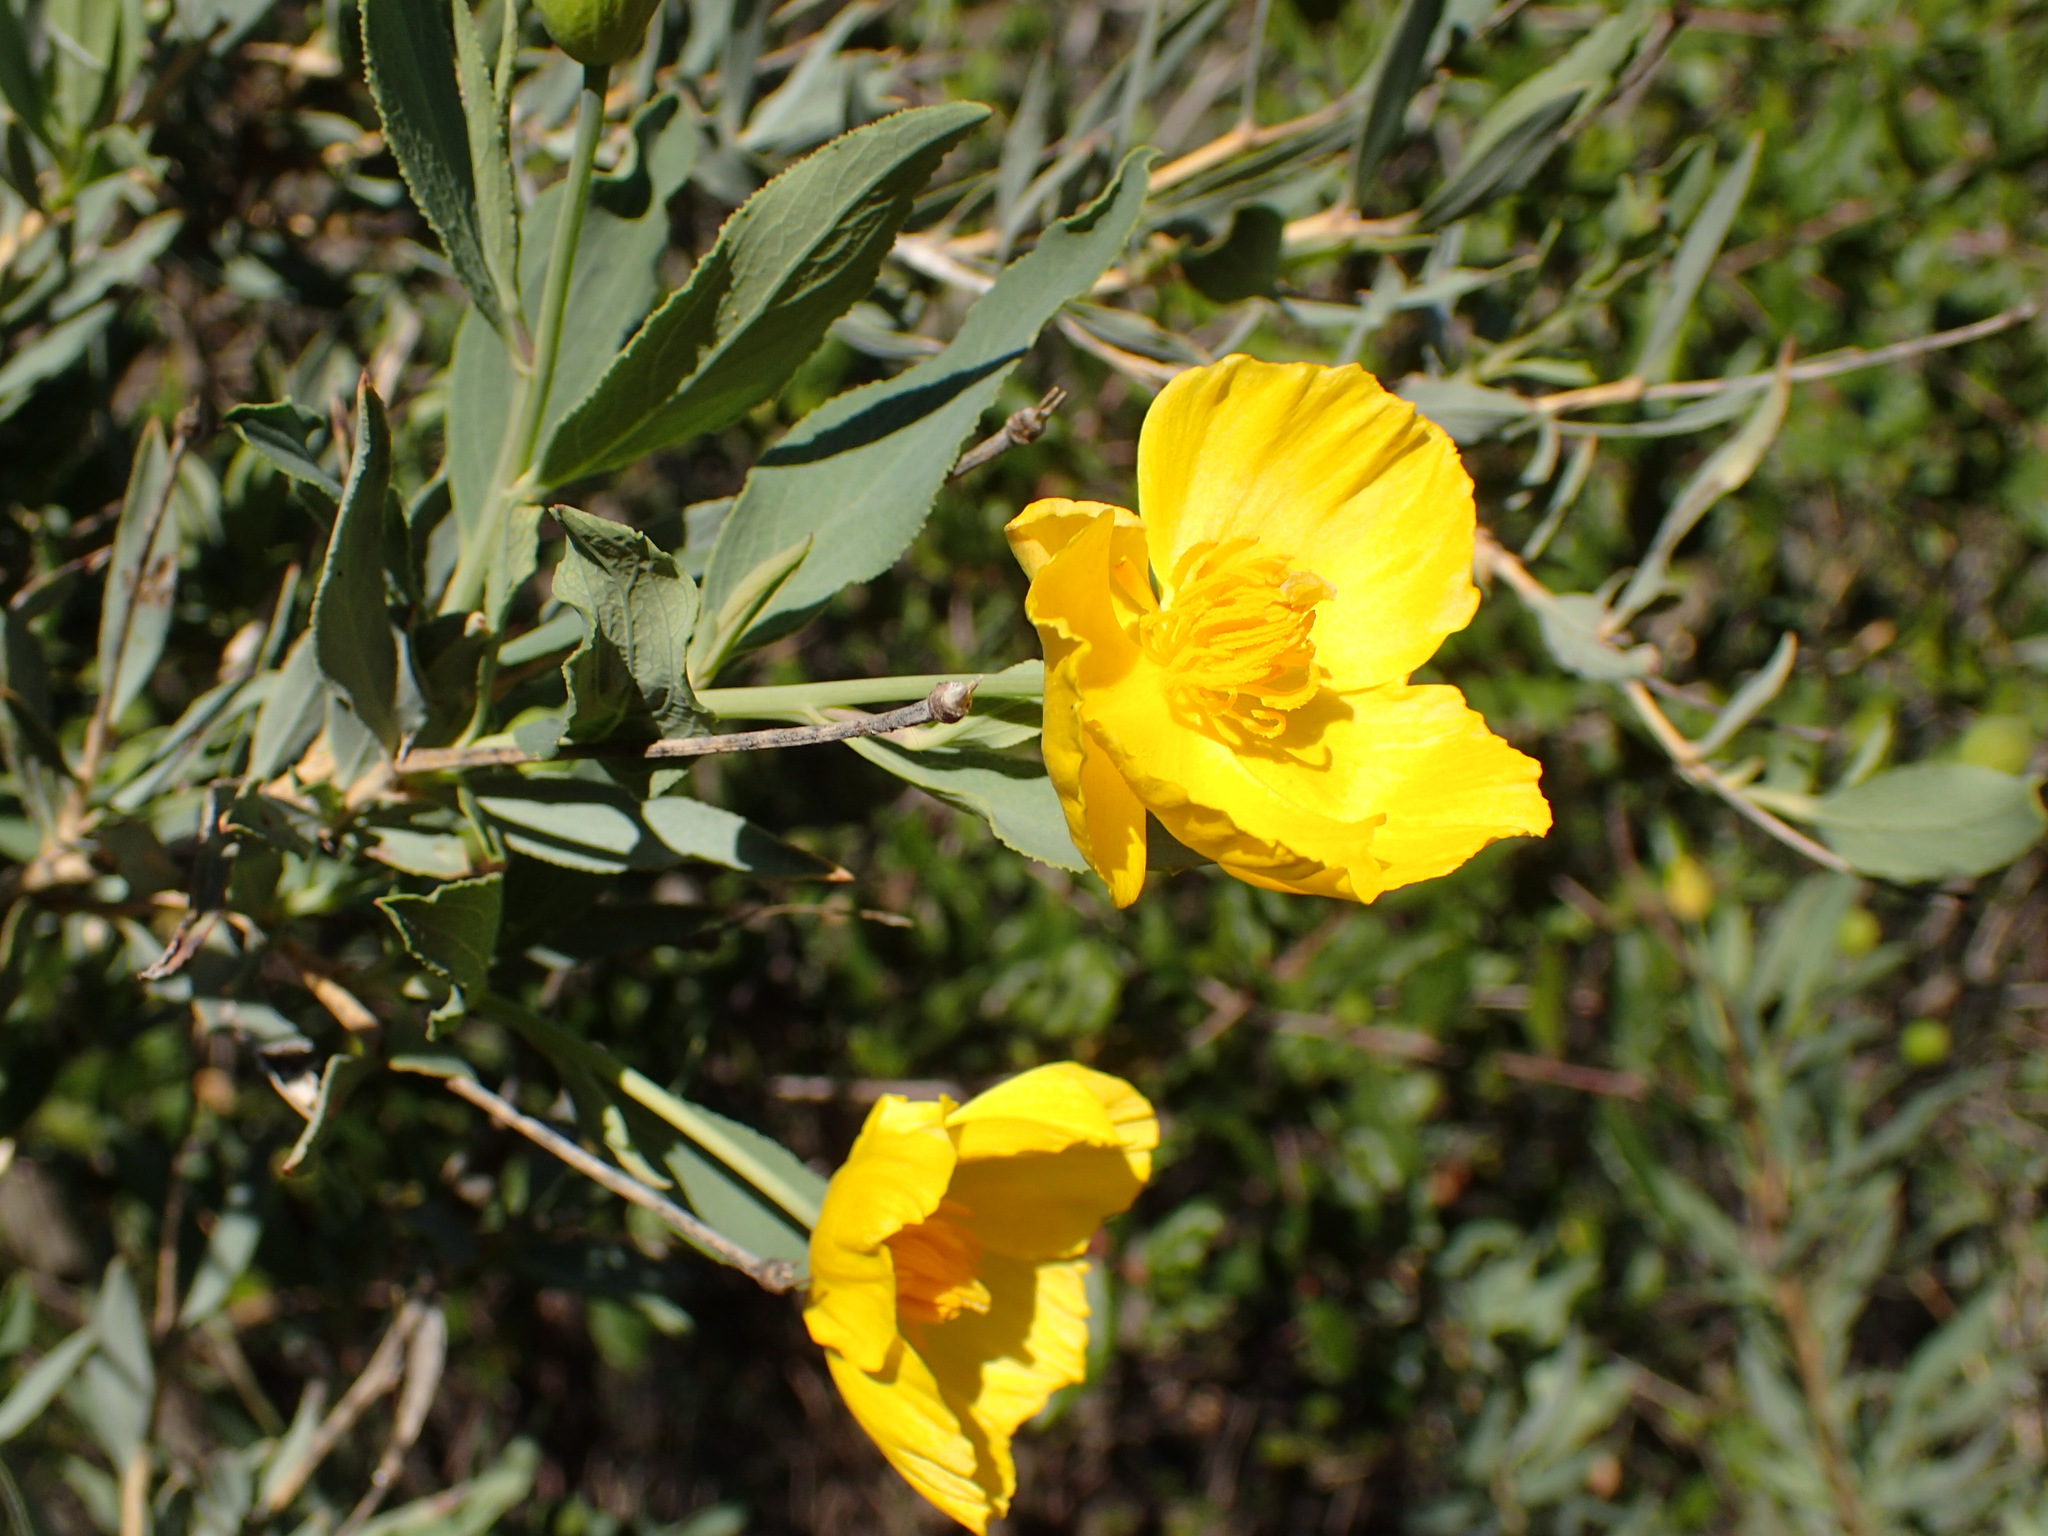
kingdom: Plantae
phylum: Tracheophyta
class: Magnoliopsida
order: Ranunculales
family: Papaveraceae
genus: Dendromecon
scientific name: Dendromecon rigida
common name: Tree poppy
